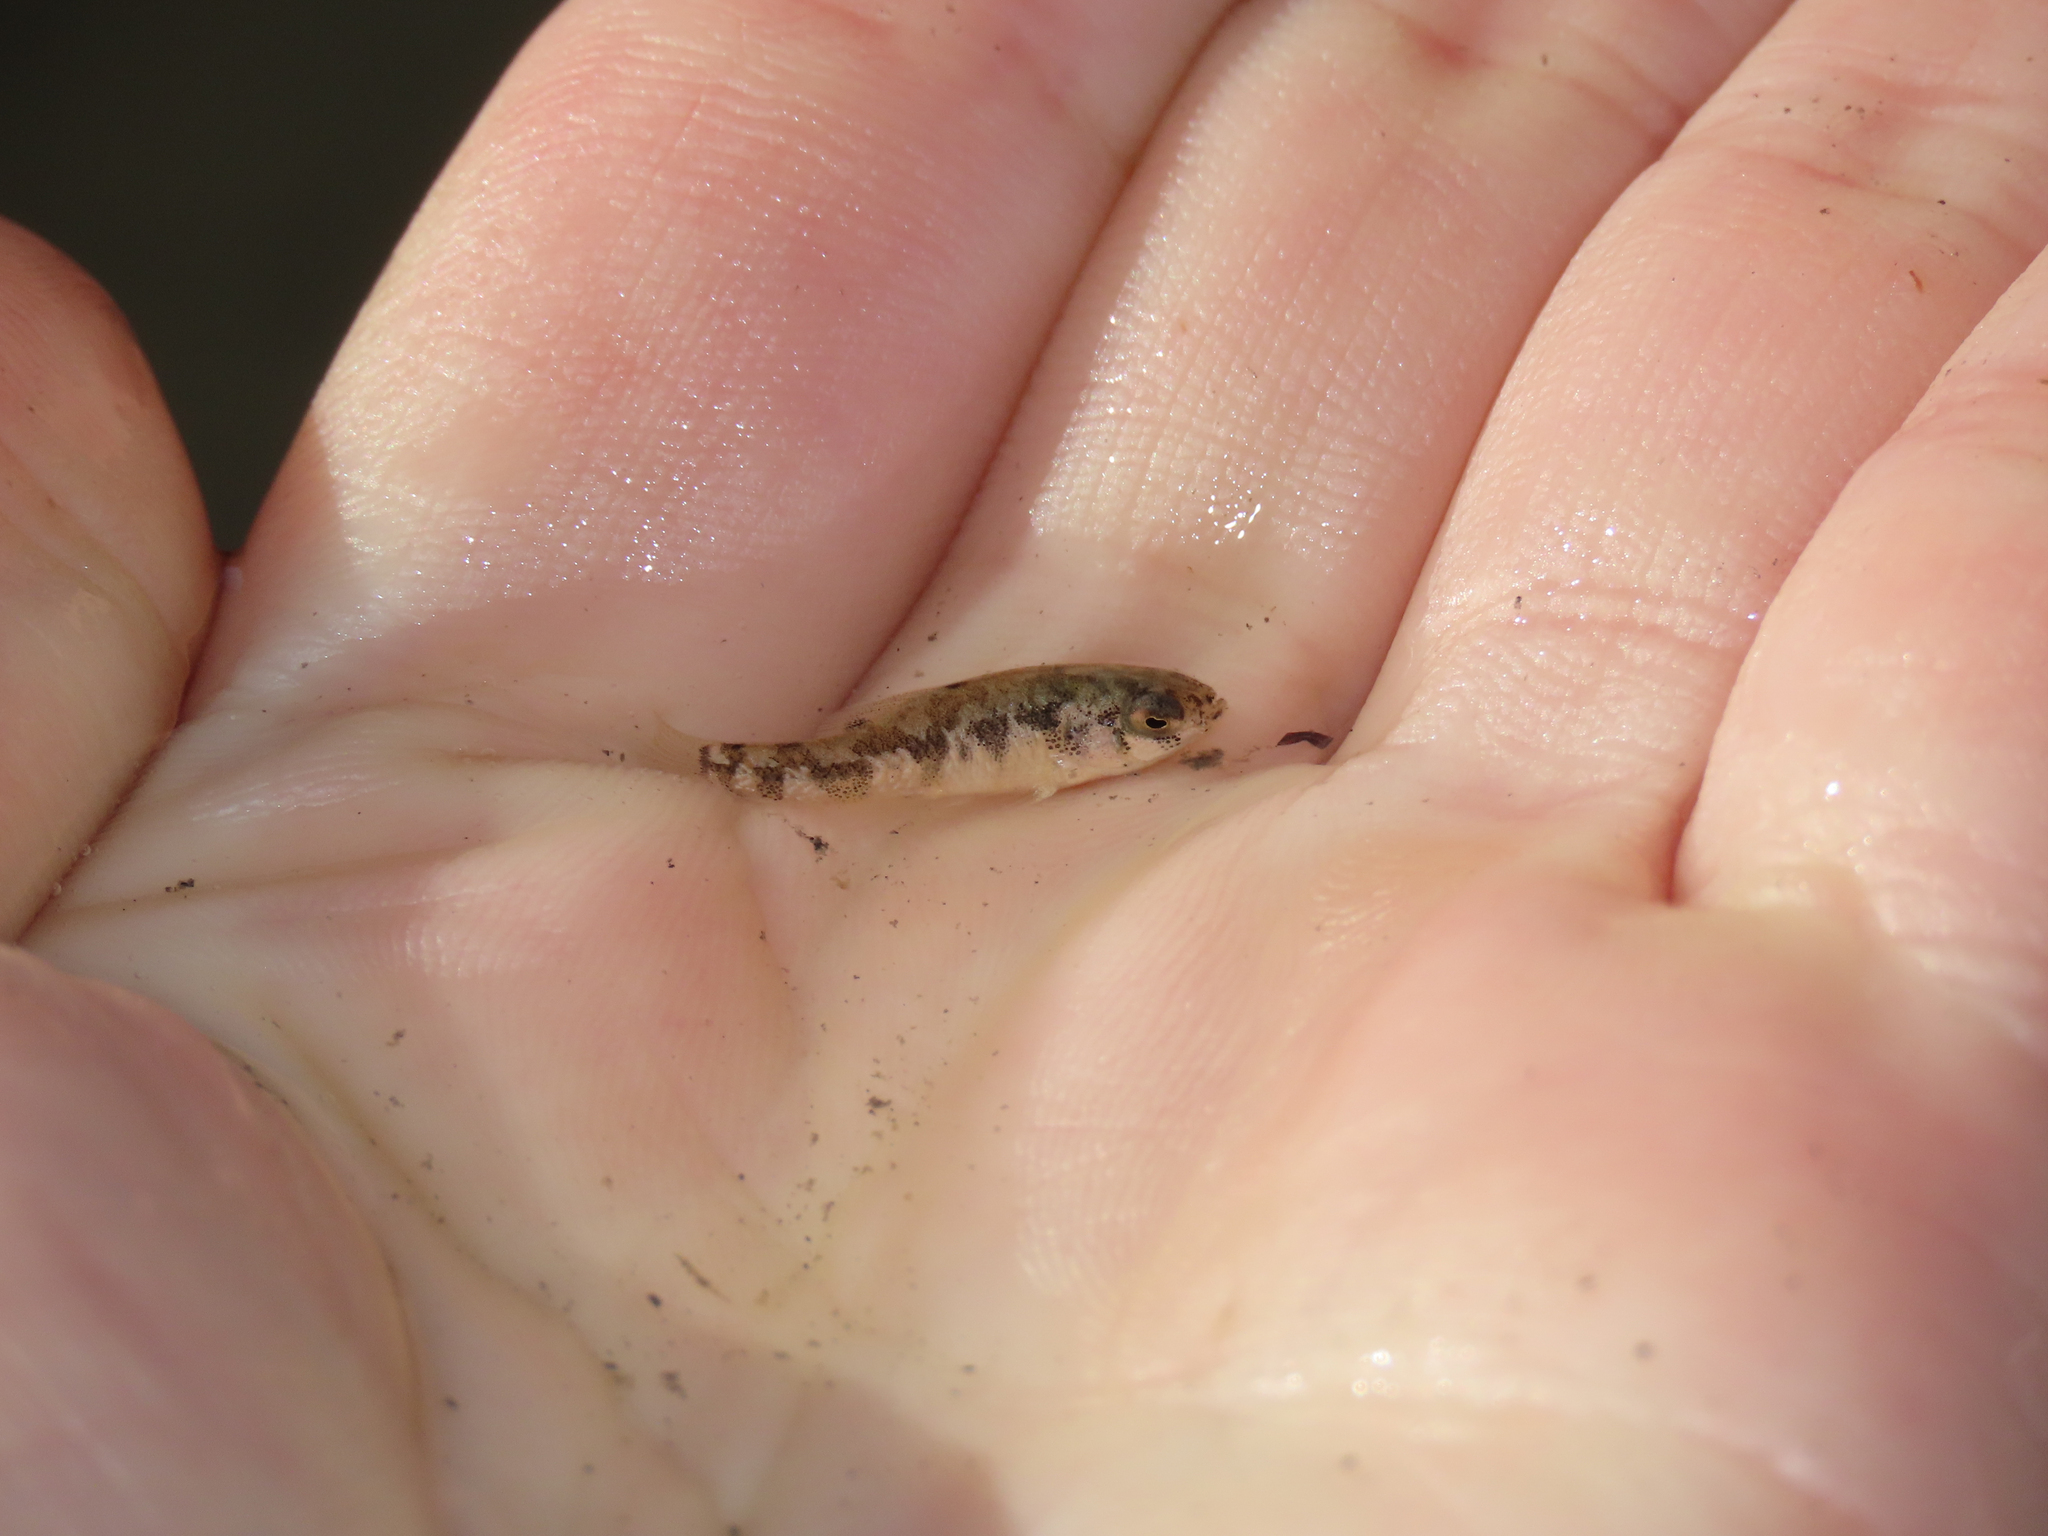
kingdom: Animalia
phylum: Chordata
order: Cyprinodontiformes
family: Cyprinodontidae
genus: Cyprinodon
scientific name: Cyprinodon variegatus
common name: Sheepshead minnow
